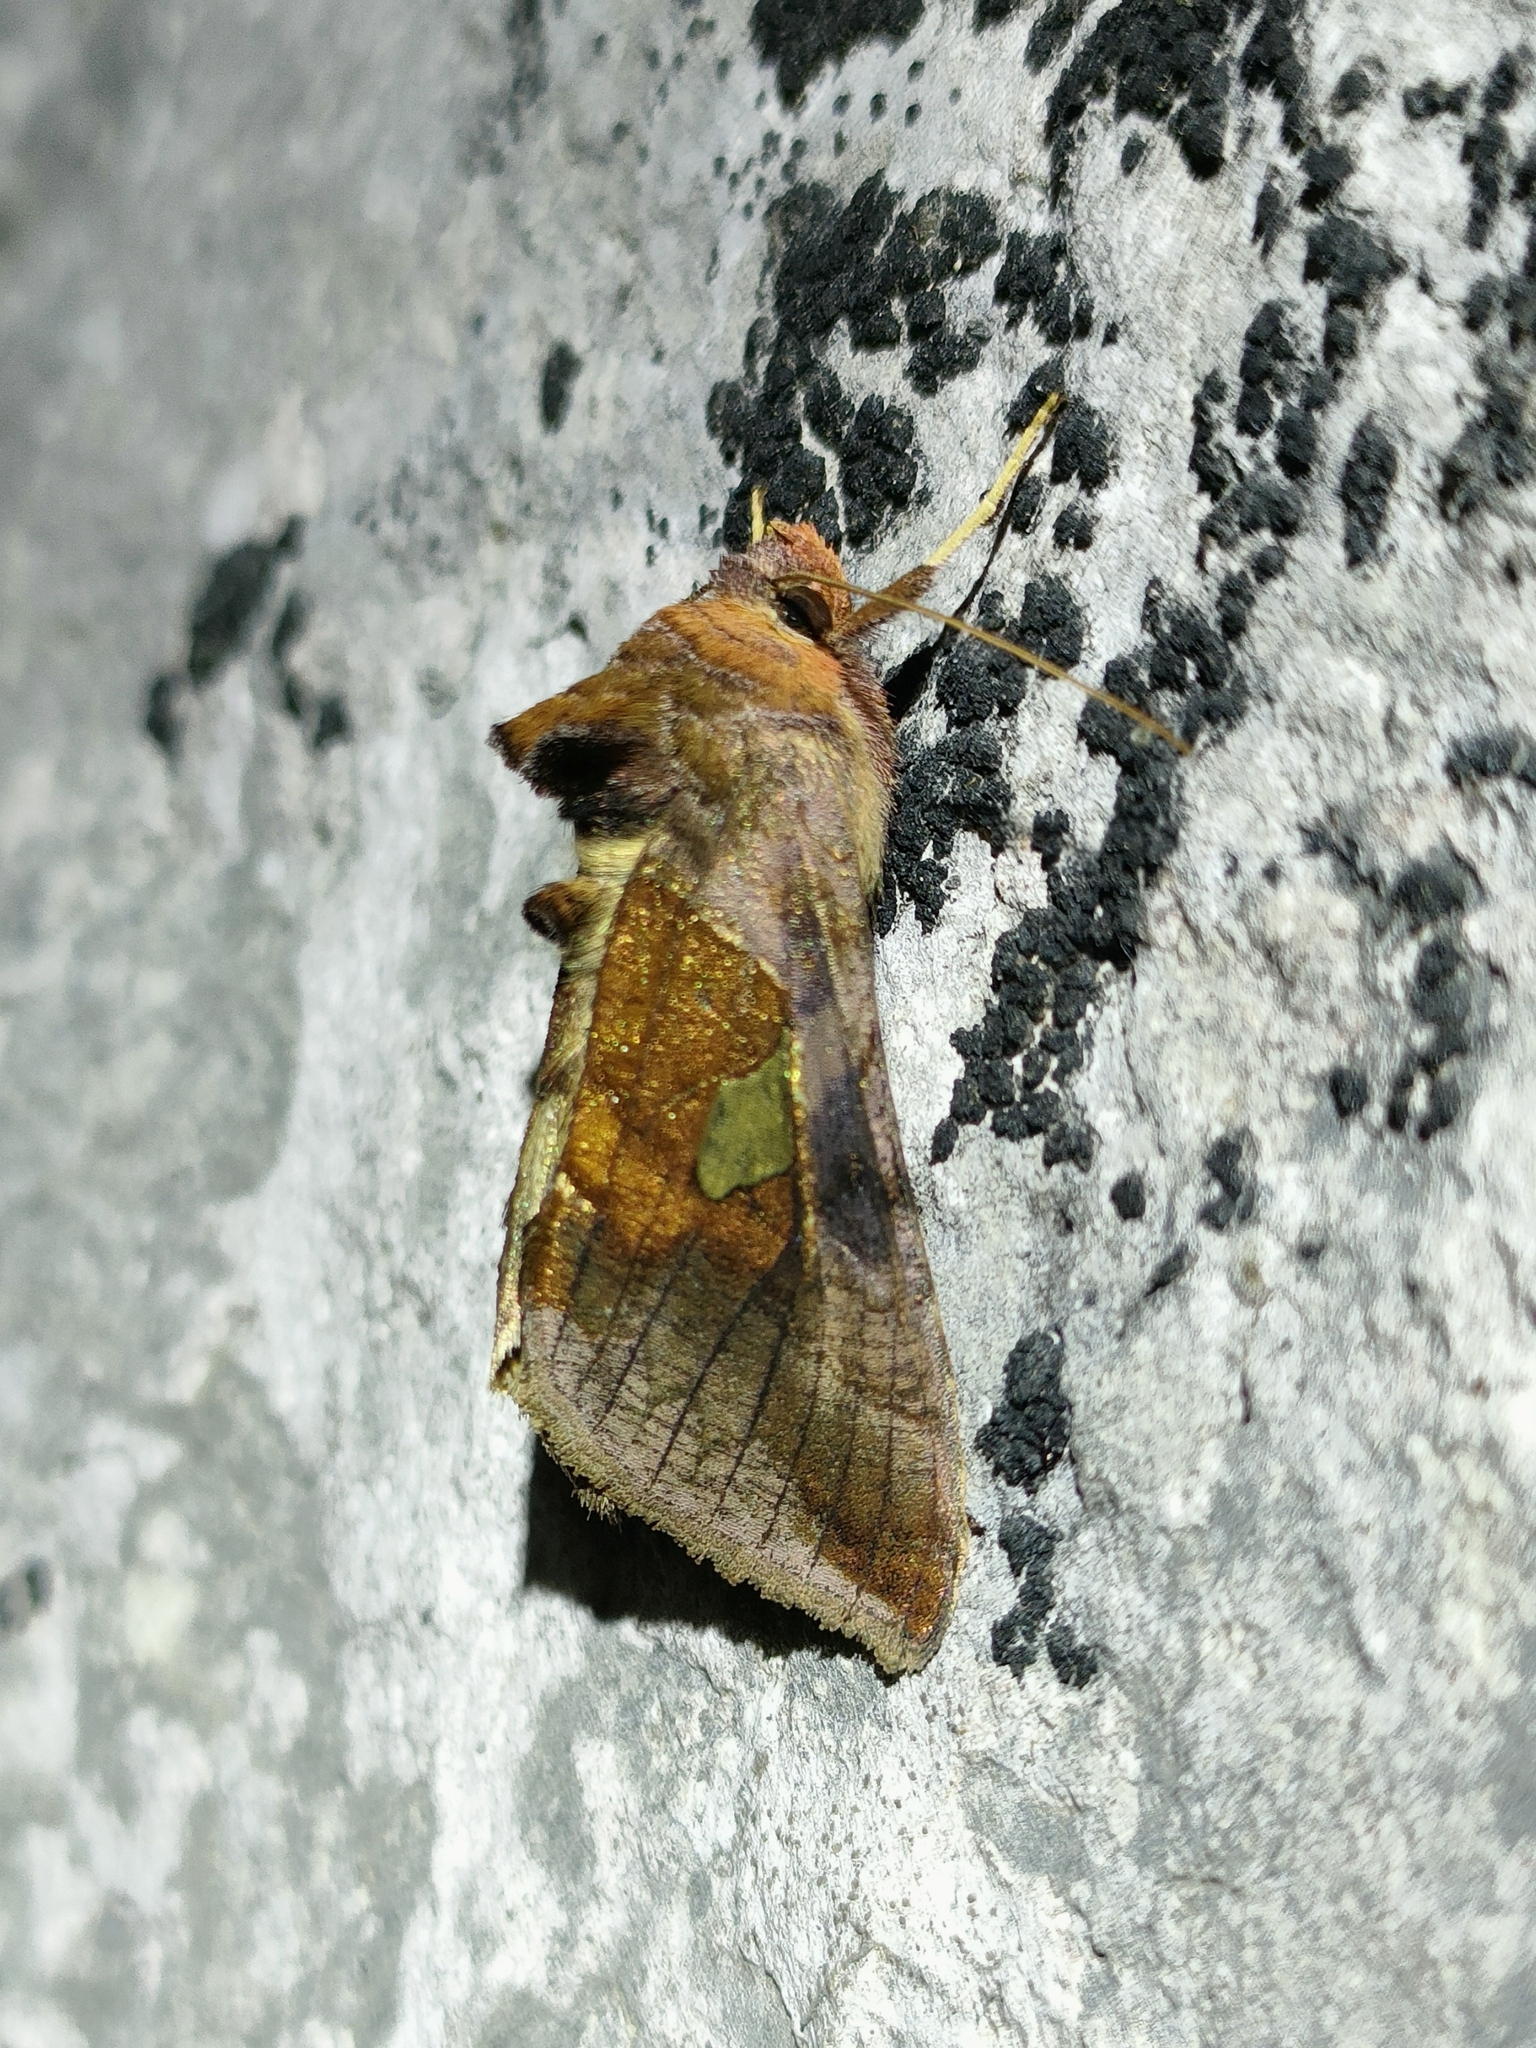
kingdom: Animalia
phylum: Arthropoda
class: Insecta
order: Lepidoptera
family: Noctuidae
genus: Autographa
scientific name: Autographa bractea
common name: Gold spangle
